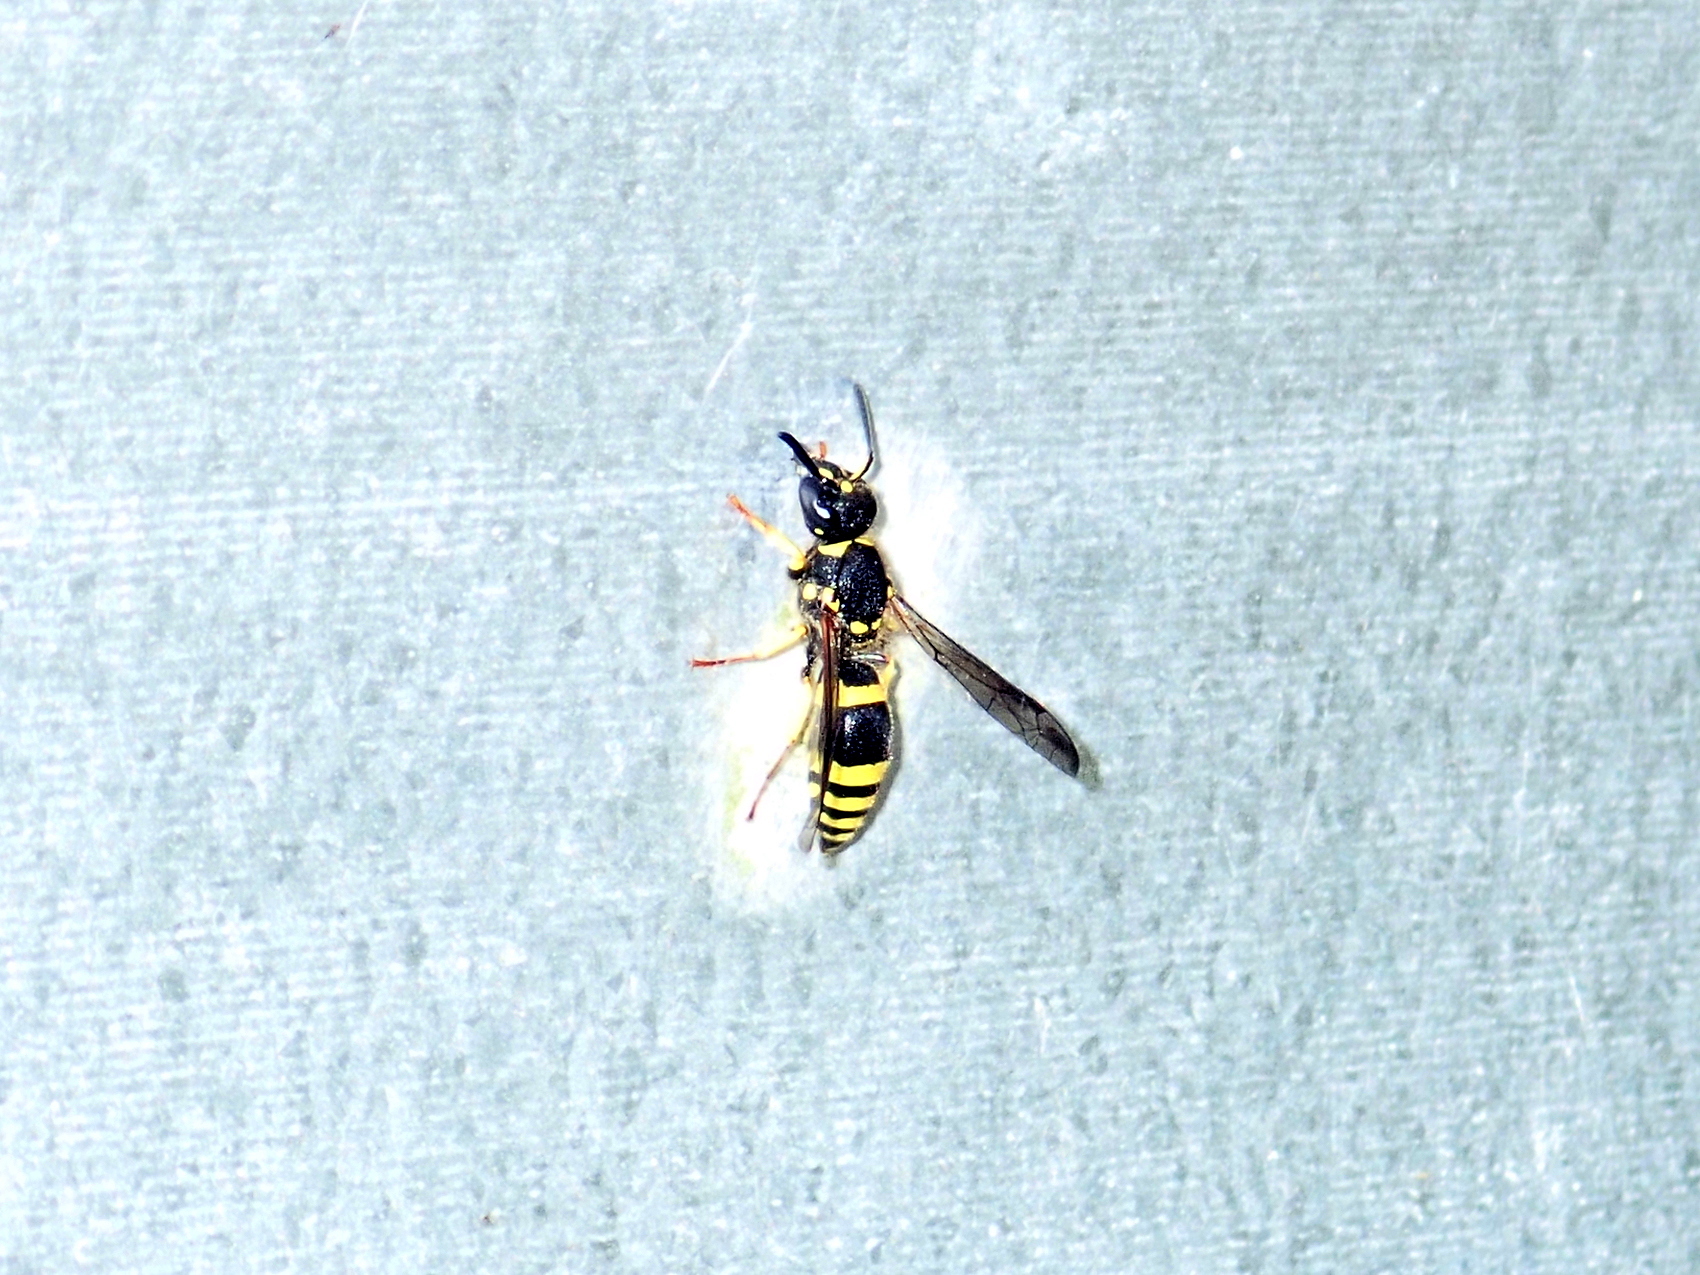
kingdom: Animalia
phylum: Arthropoda
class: Insecta
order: Hymenoptera
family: Vespidae
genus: Ancistrocerus
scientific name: Ancistrocerus gazella
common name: European tube wasp
